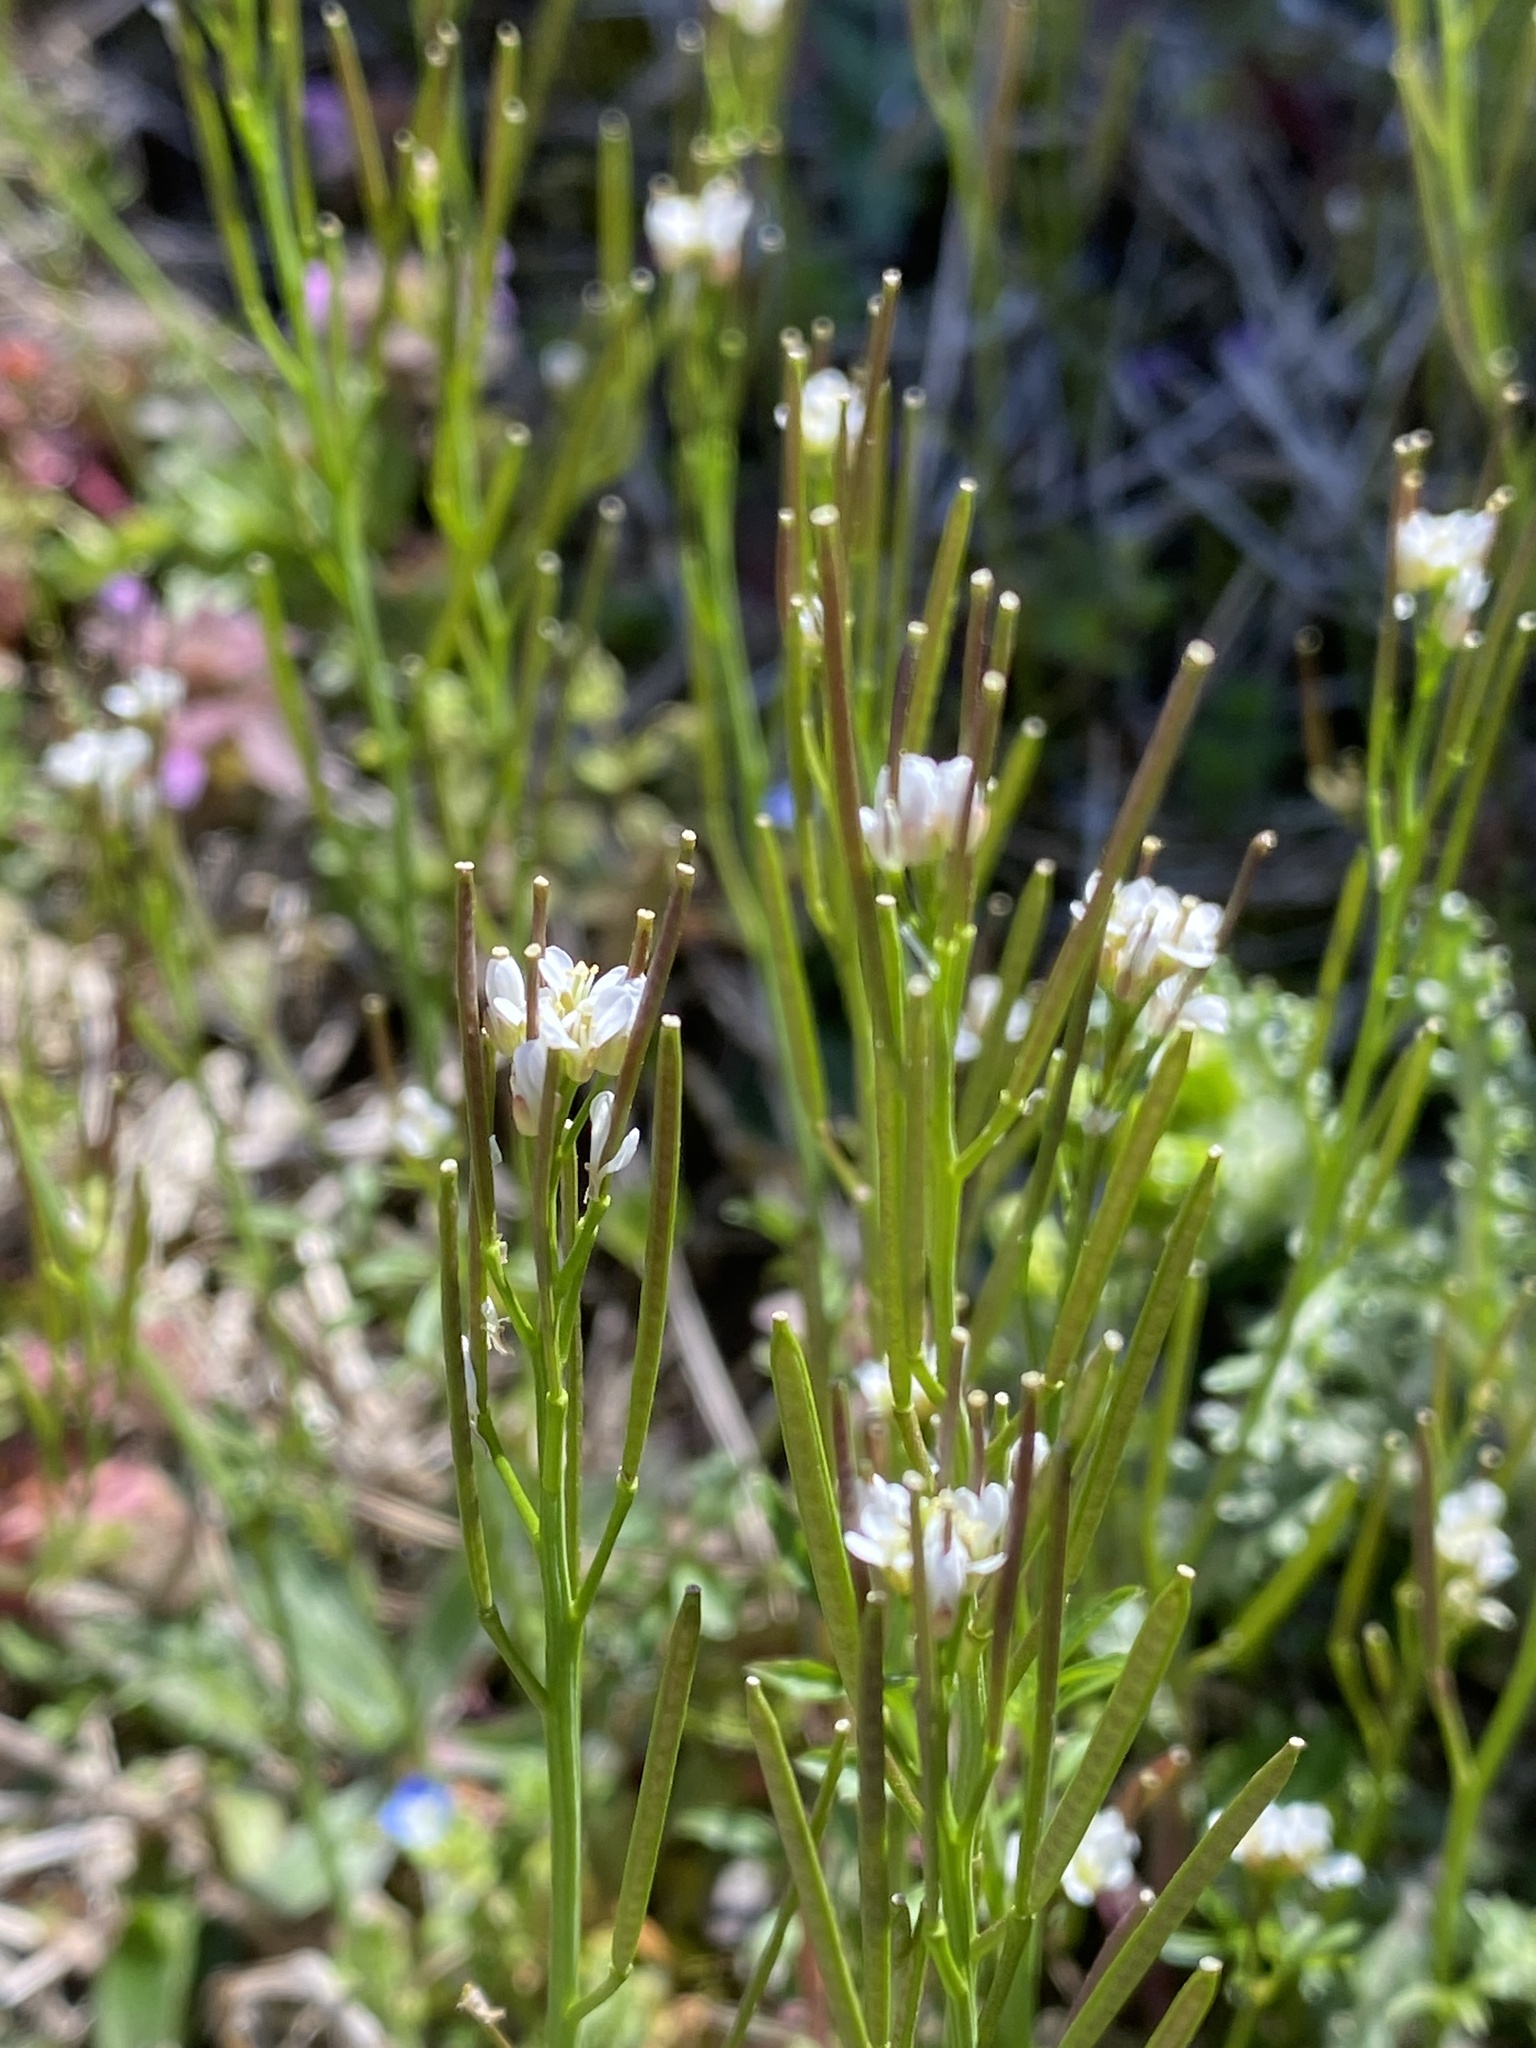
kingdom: Plantae
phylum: Tracheophyta
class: Magnoliopsida
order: Brassicales
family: Brassicaceae
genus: Cardamine
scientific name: Cardamine hirsuta
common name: Hairy bittercress
